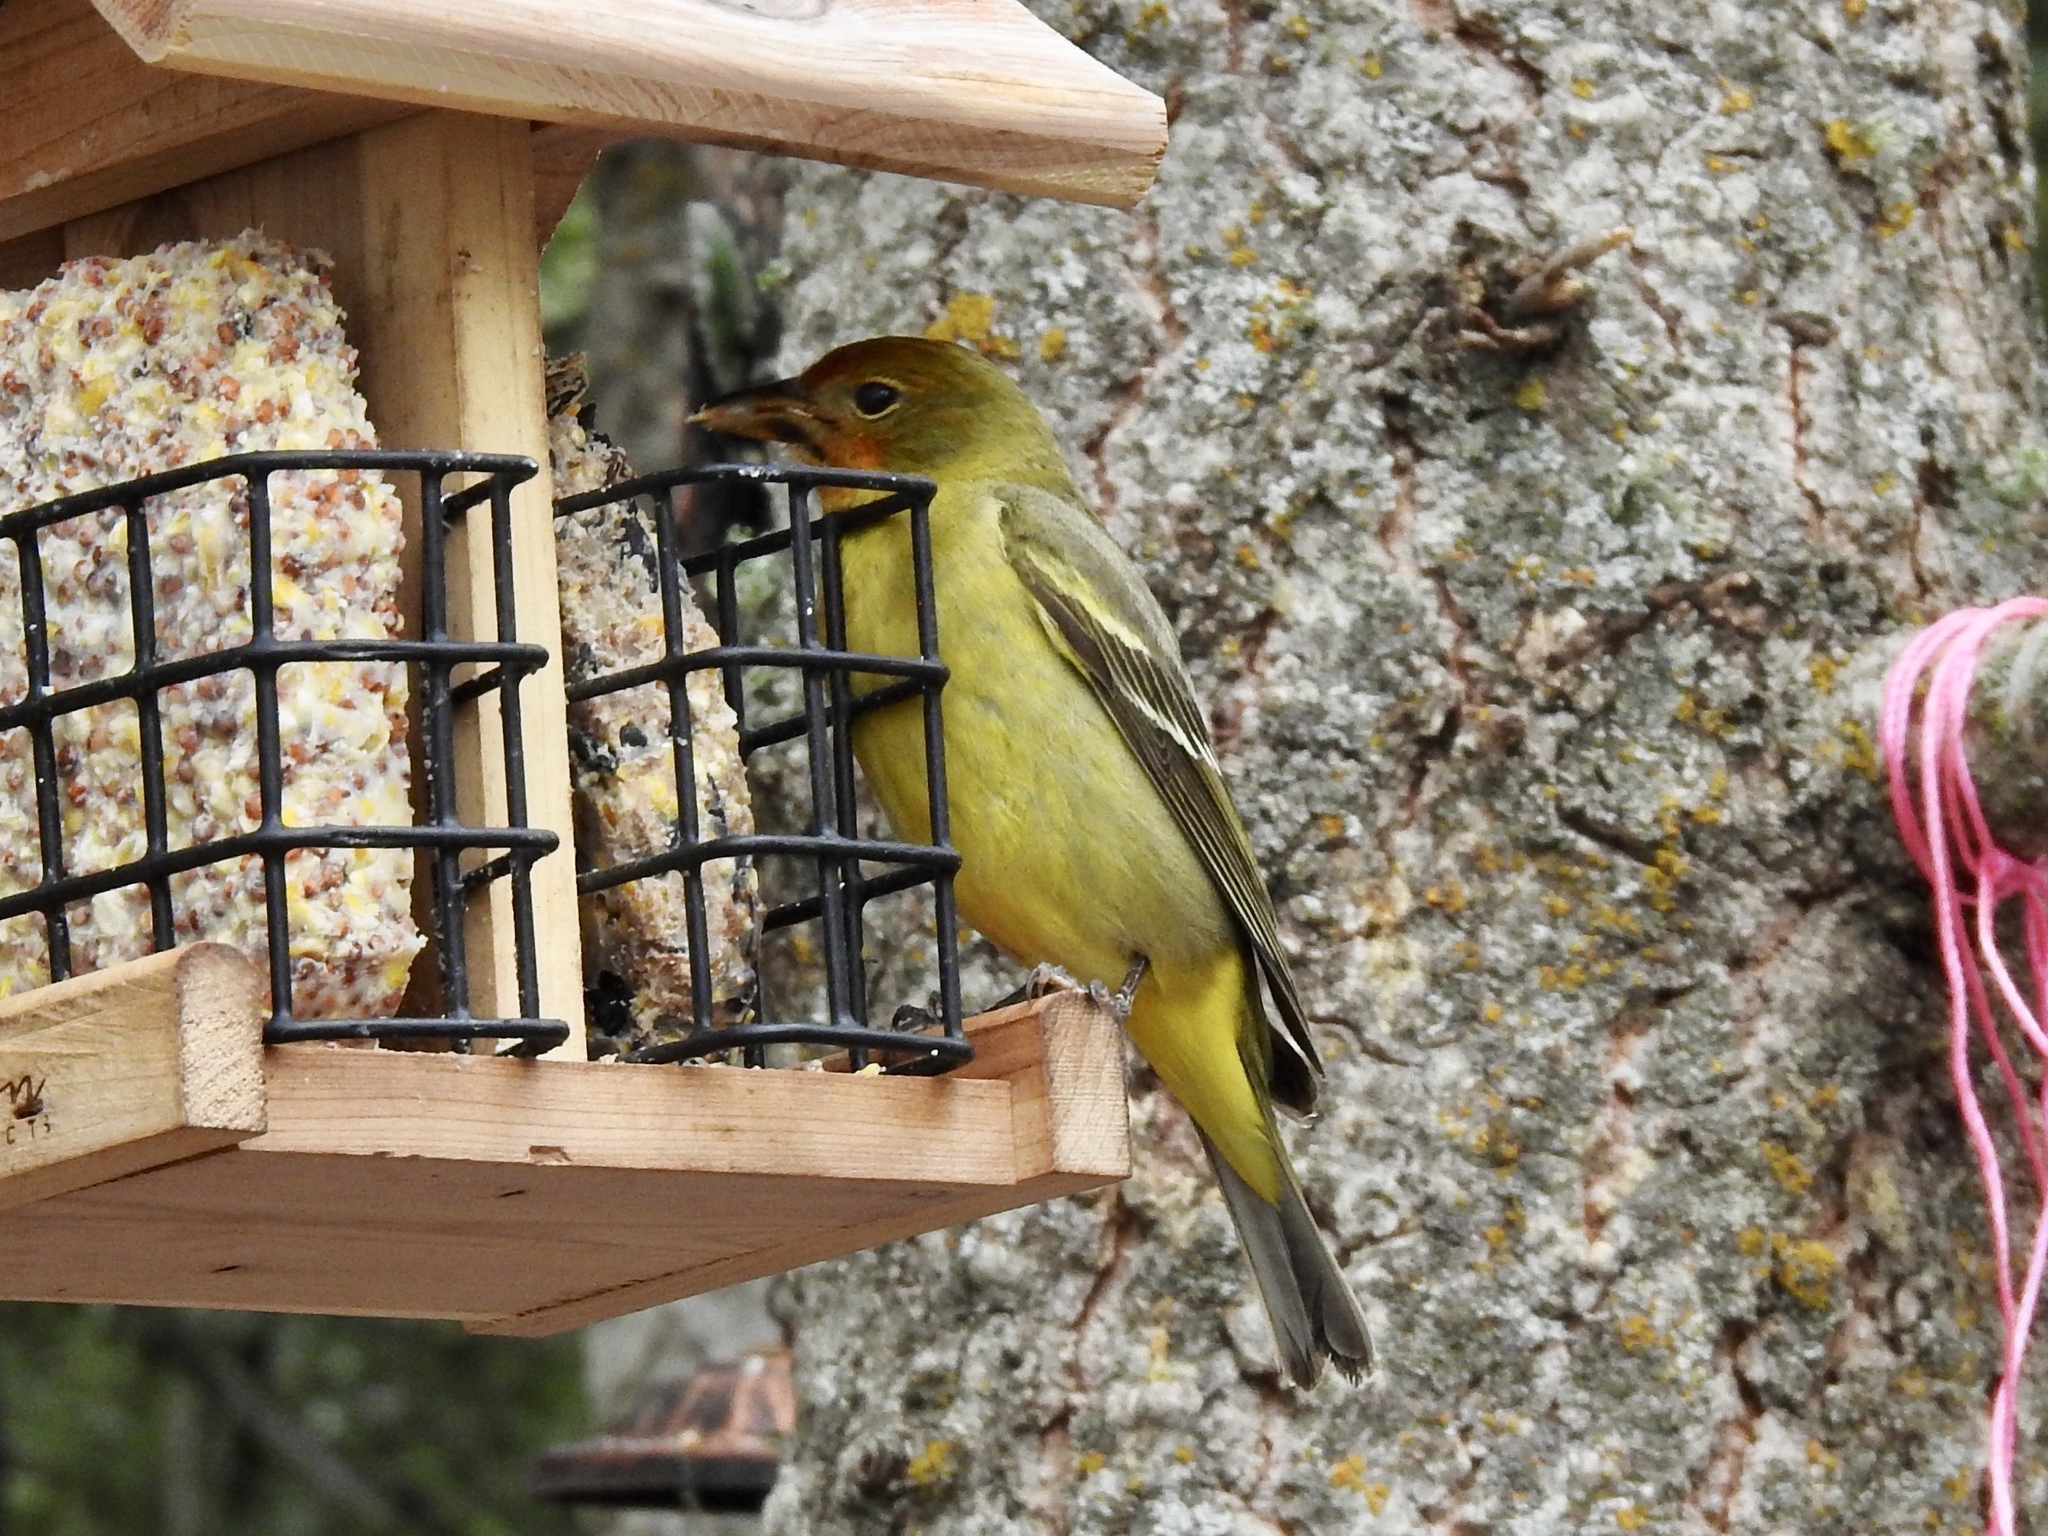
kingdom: Animalia
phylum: Chordata
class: Aves
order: Passeriformes
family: Cardinalidae
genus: Piranga
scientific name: Piranga ludoviciana
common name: Western tanager
